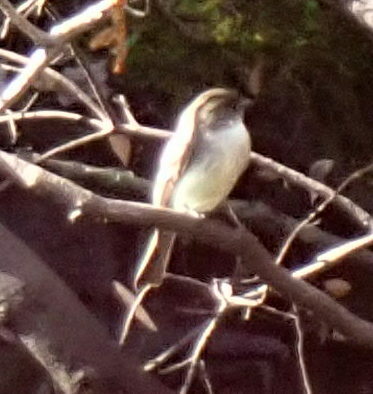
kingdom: Animalia
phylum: Chordata
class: Aves
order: Passeriformes
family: Tyrannidae
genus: Sayornis
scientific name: Sayornis phoebe
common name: Eastern phoebe
